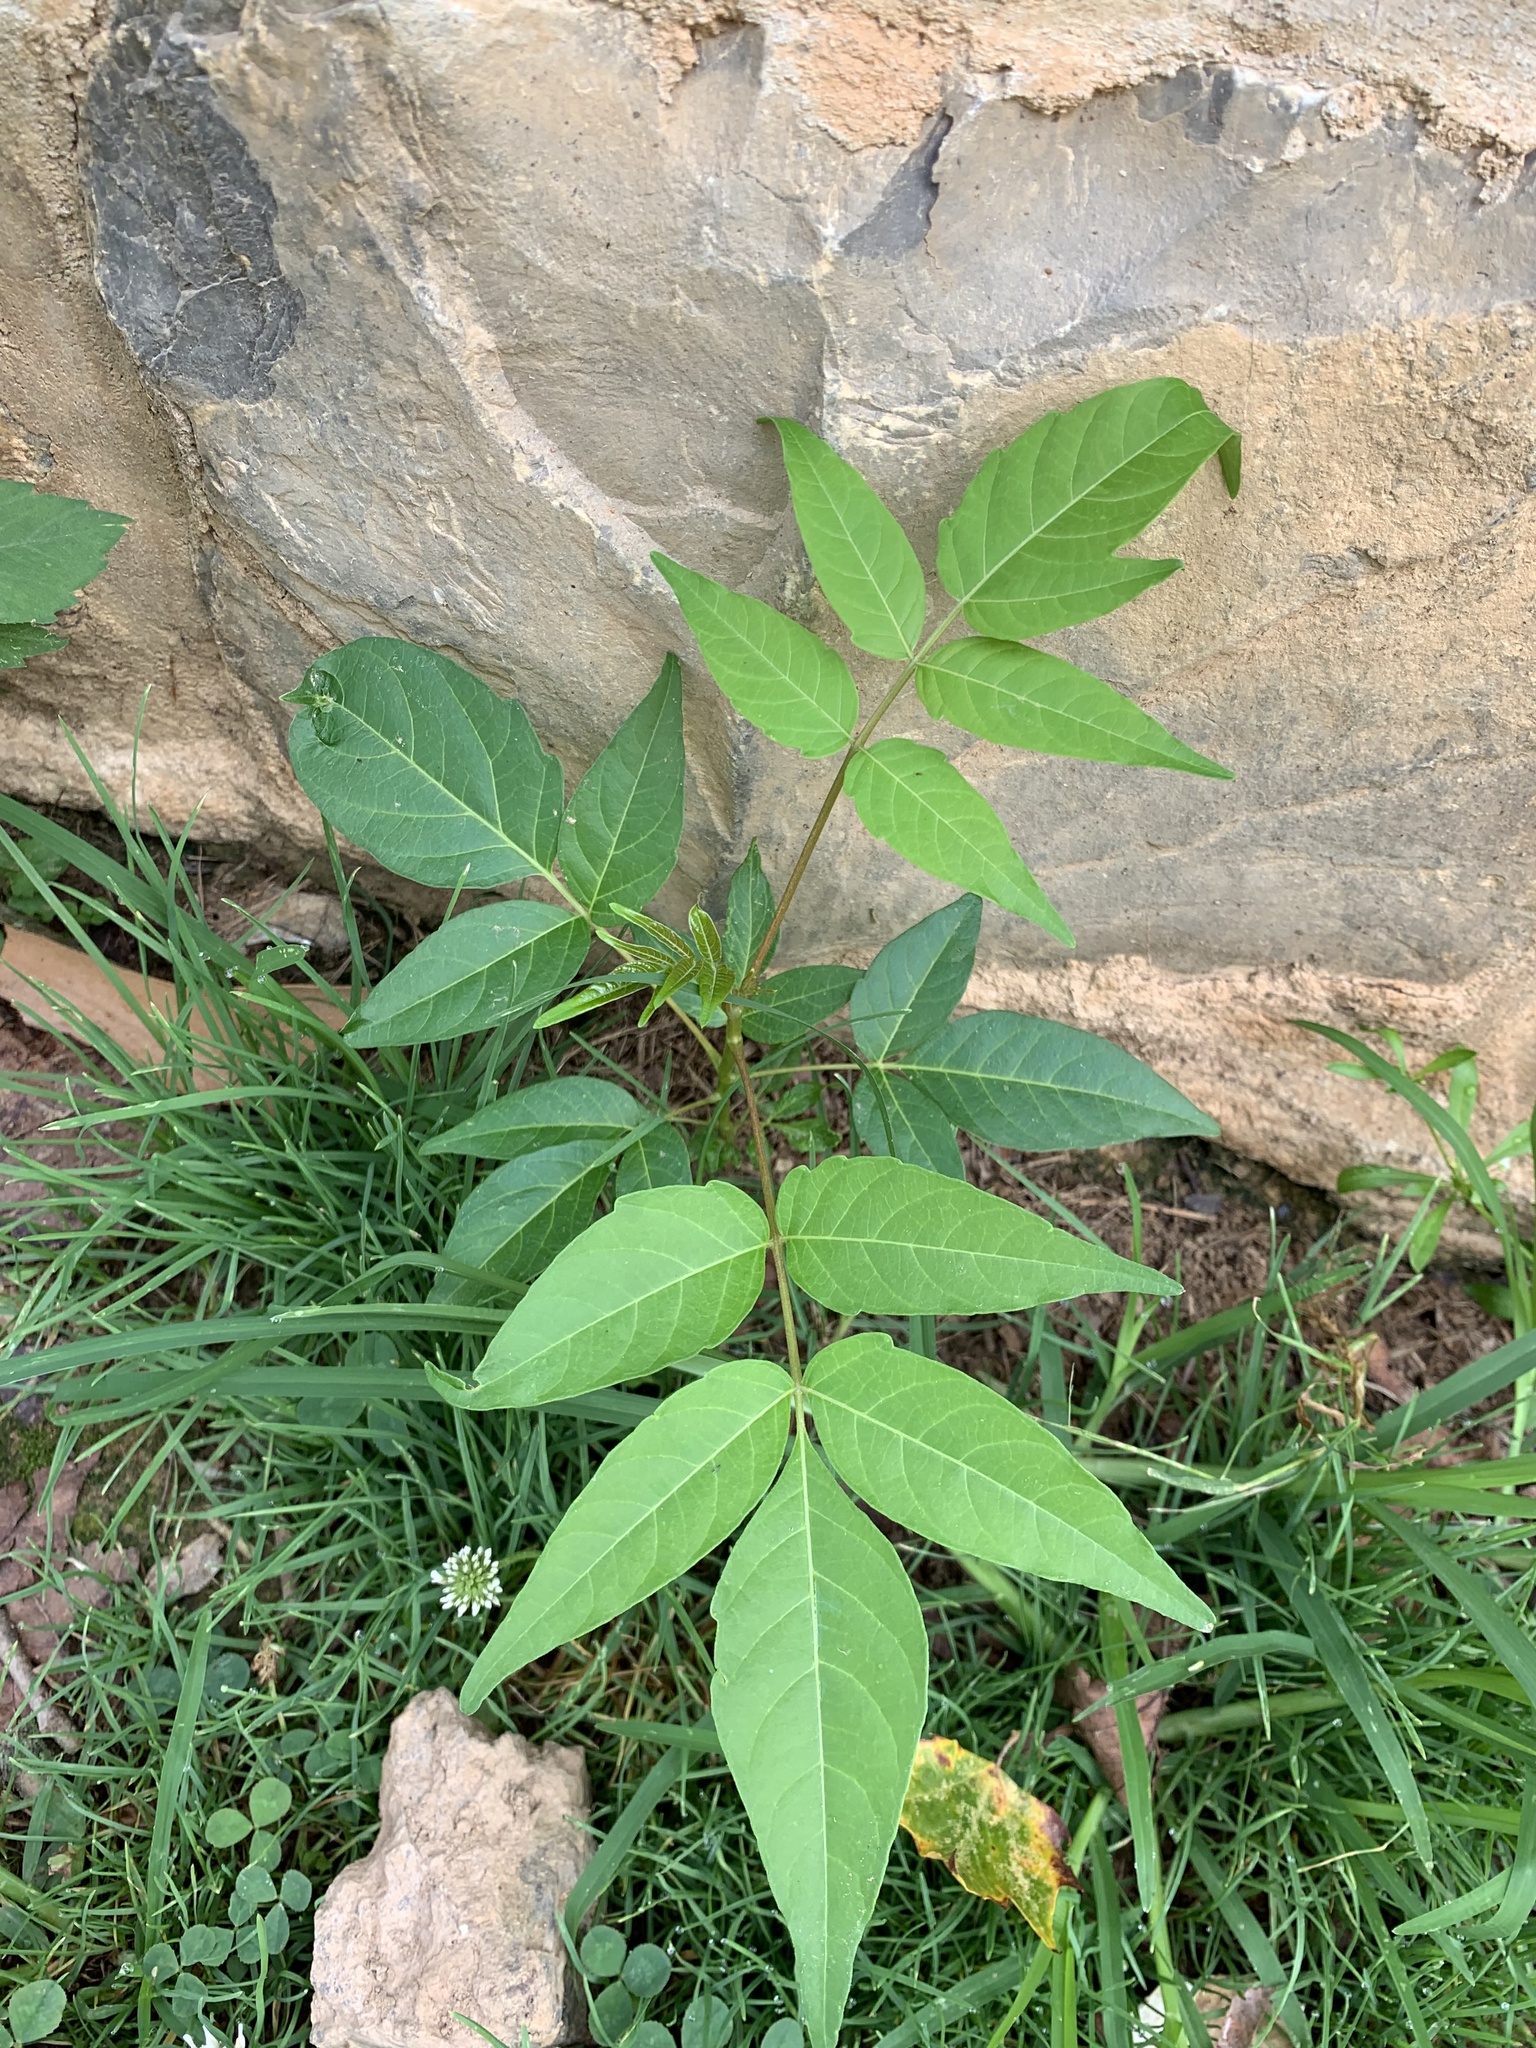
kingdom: Plantae
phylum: Tracheophyta
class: Magnoliopsida
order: Sapindales
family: Simaroubaceae
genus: Ailanthus
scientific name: Ailanthus altissima
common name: Tree-of-heaven
